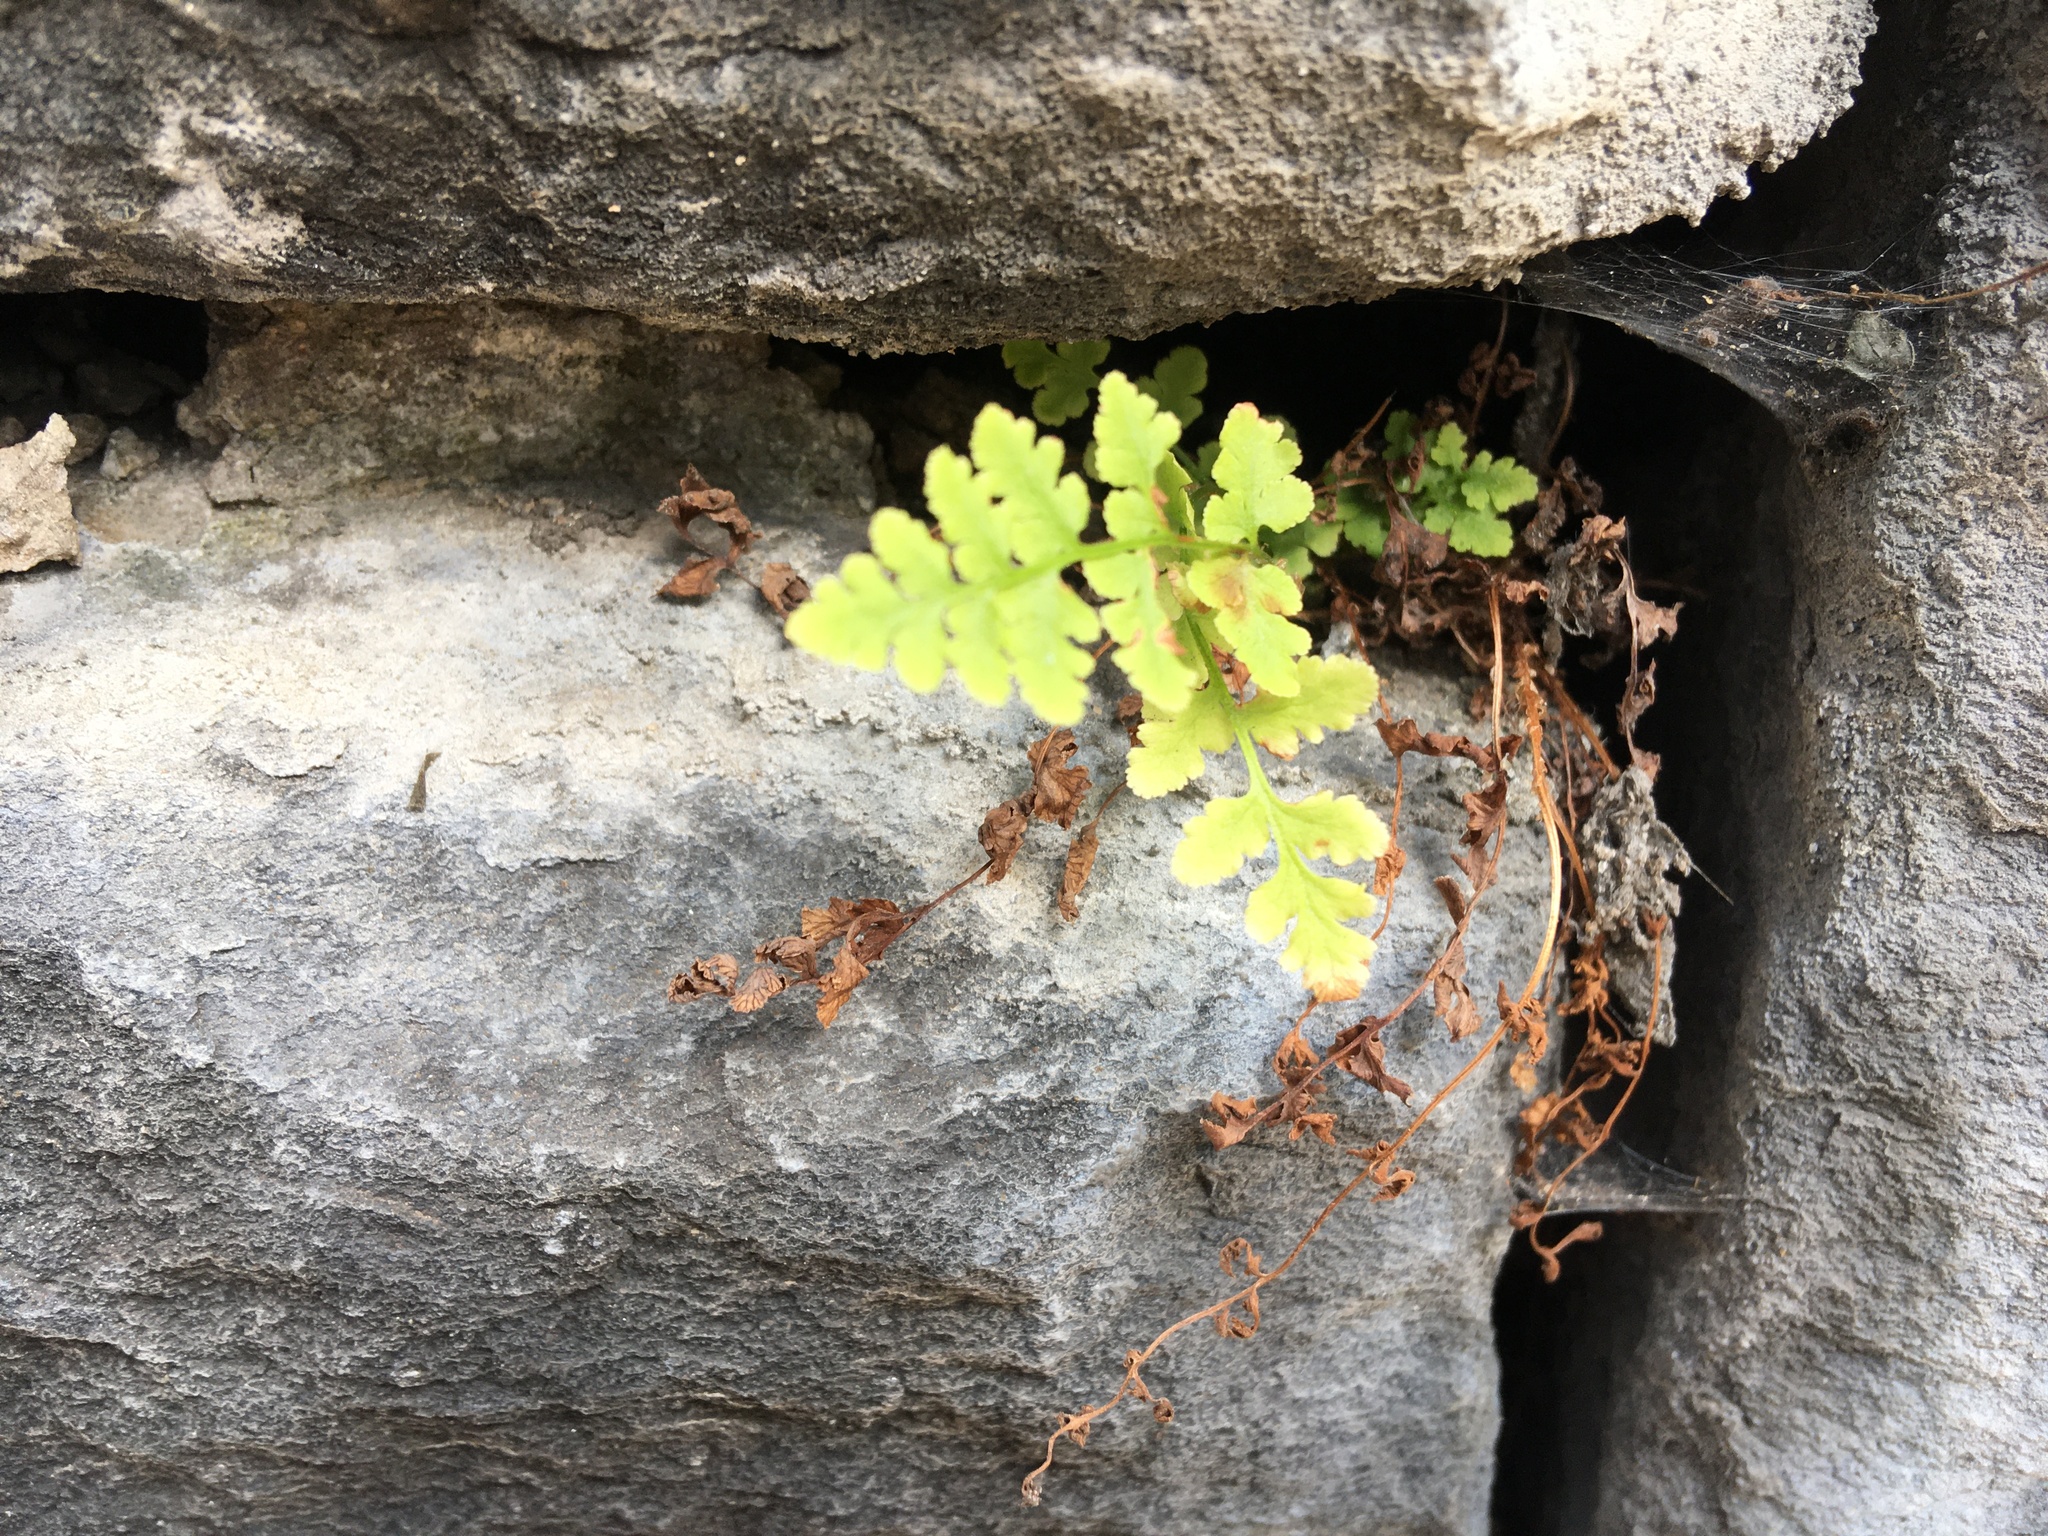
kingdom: Plantae
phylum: Tracheophyta
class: Polypodiopsida
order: Polypodiales
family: Woodsiaceae
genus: Physematium
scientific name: Physematium obtusum
